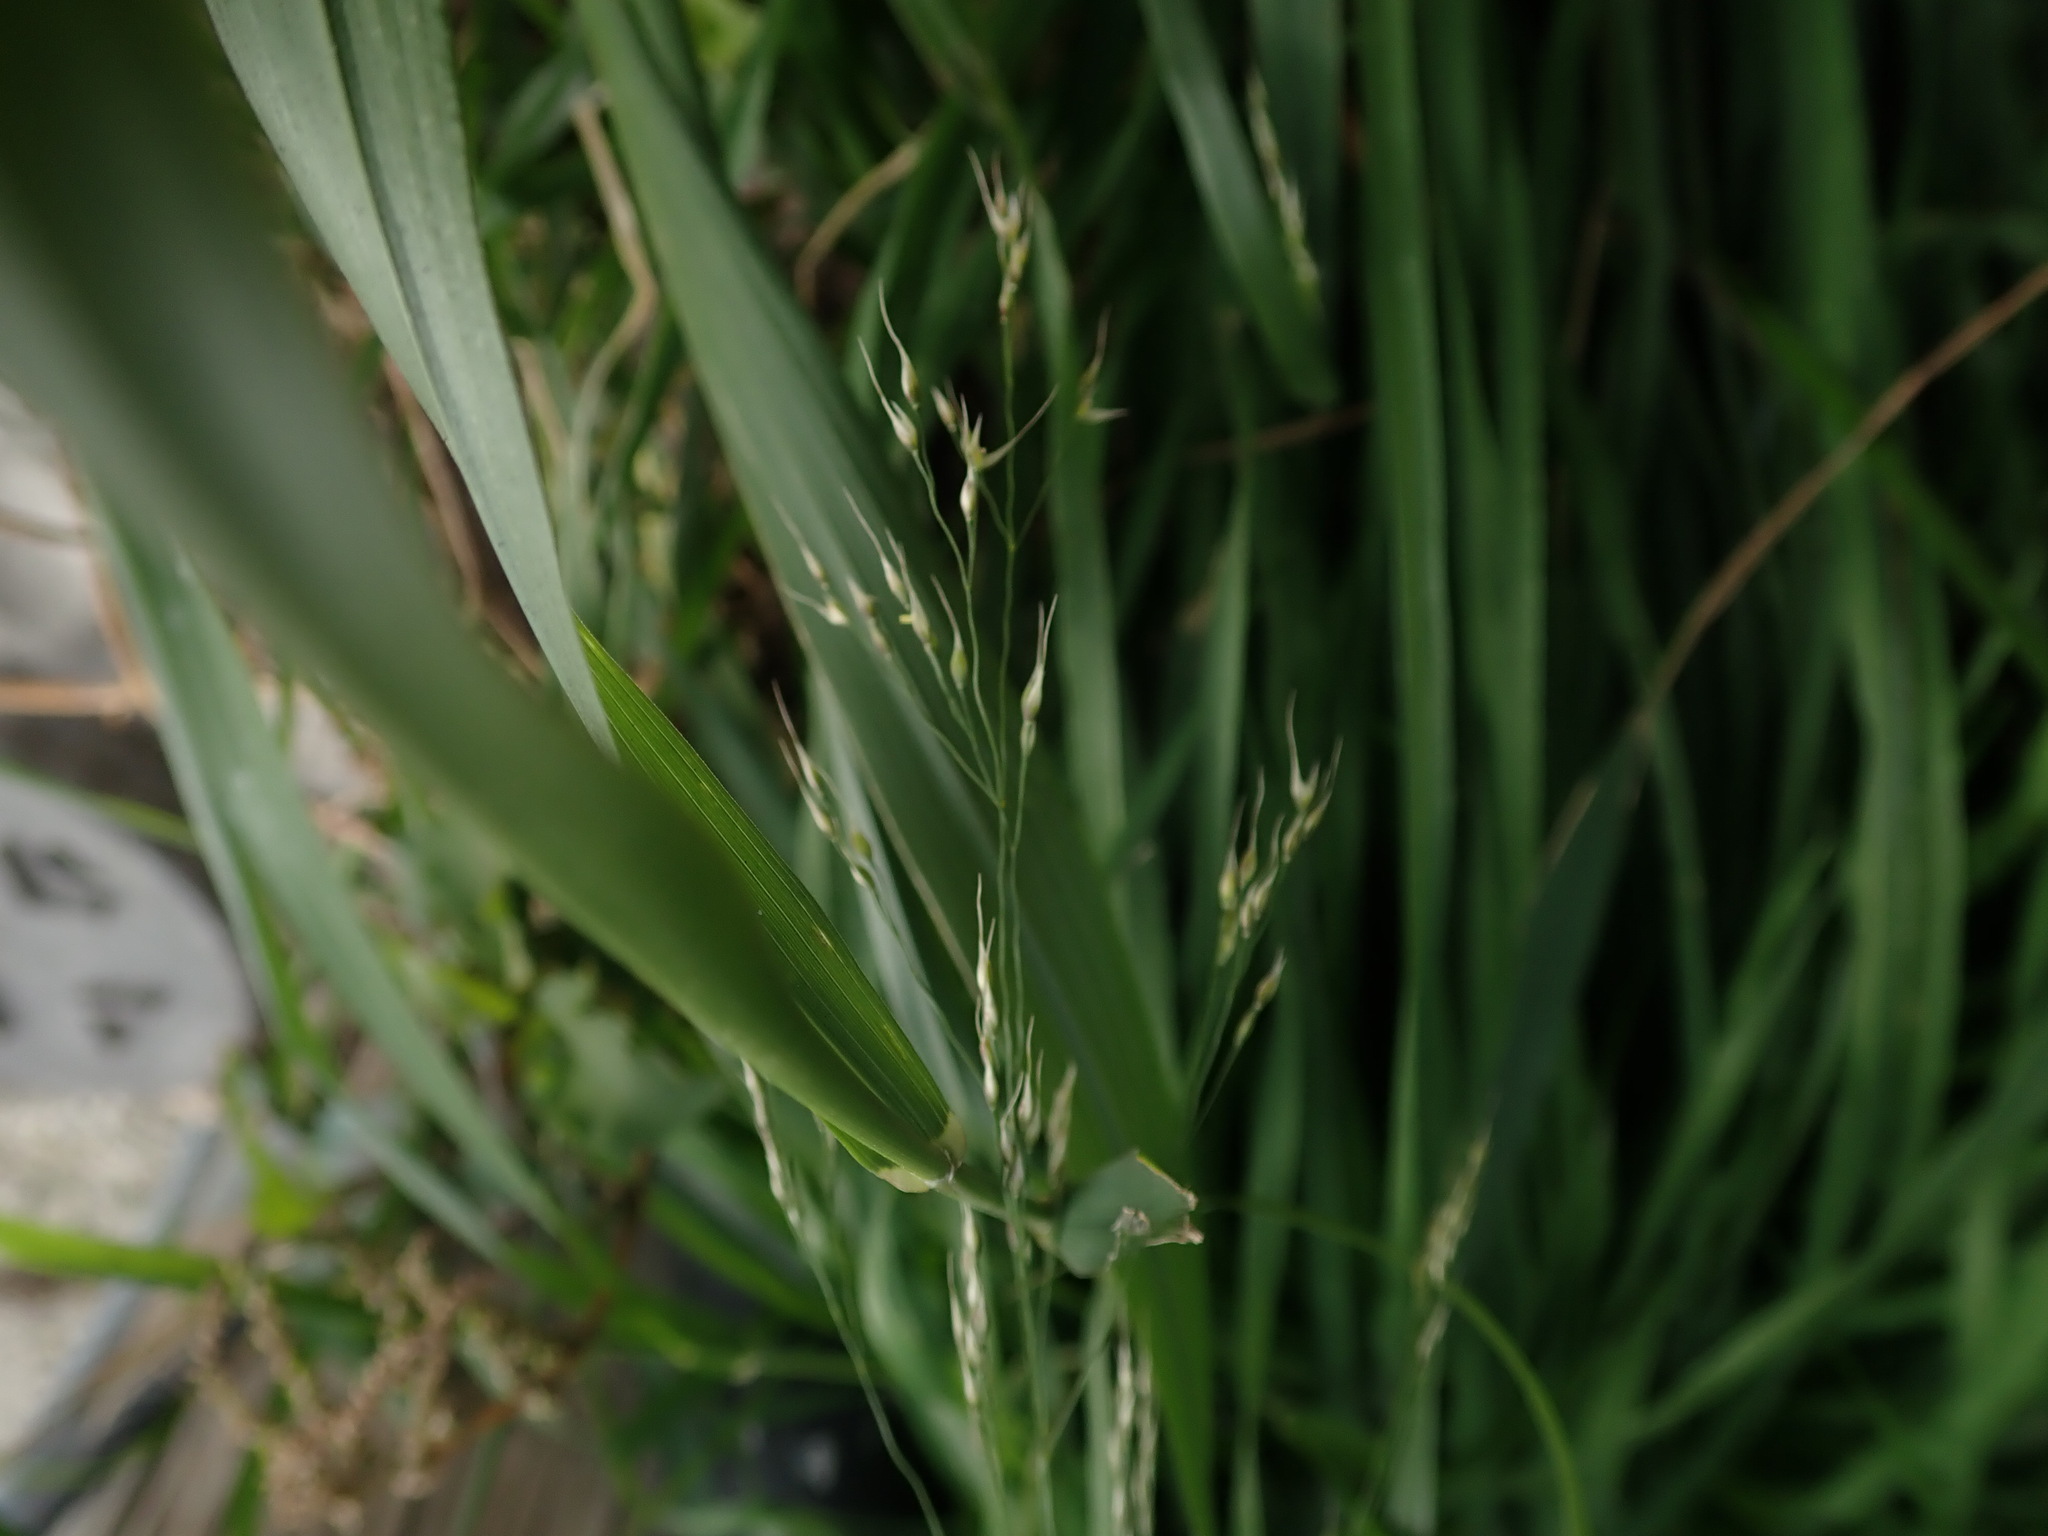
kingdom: Plantae
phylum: Tracheophyta
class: Liliopsida
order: Poales
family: Poaceae
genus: Oloptum
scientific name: Oloptum miliaceum
